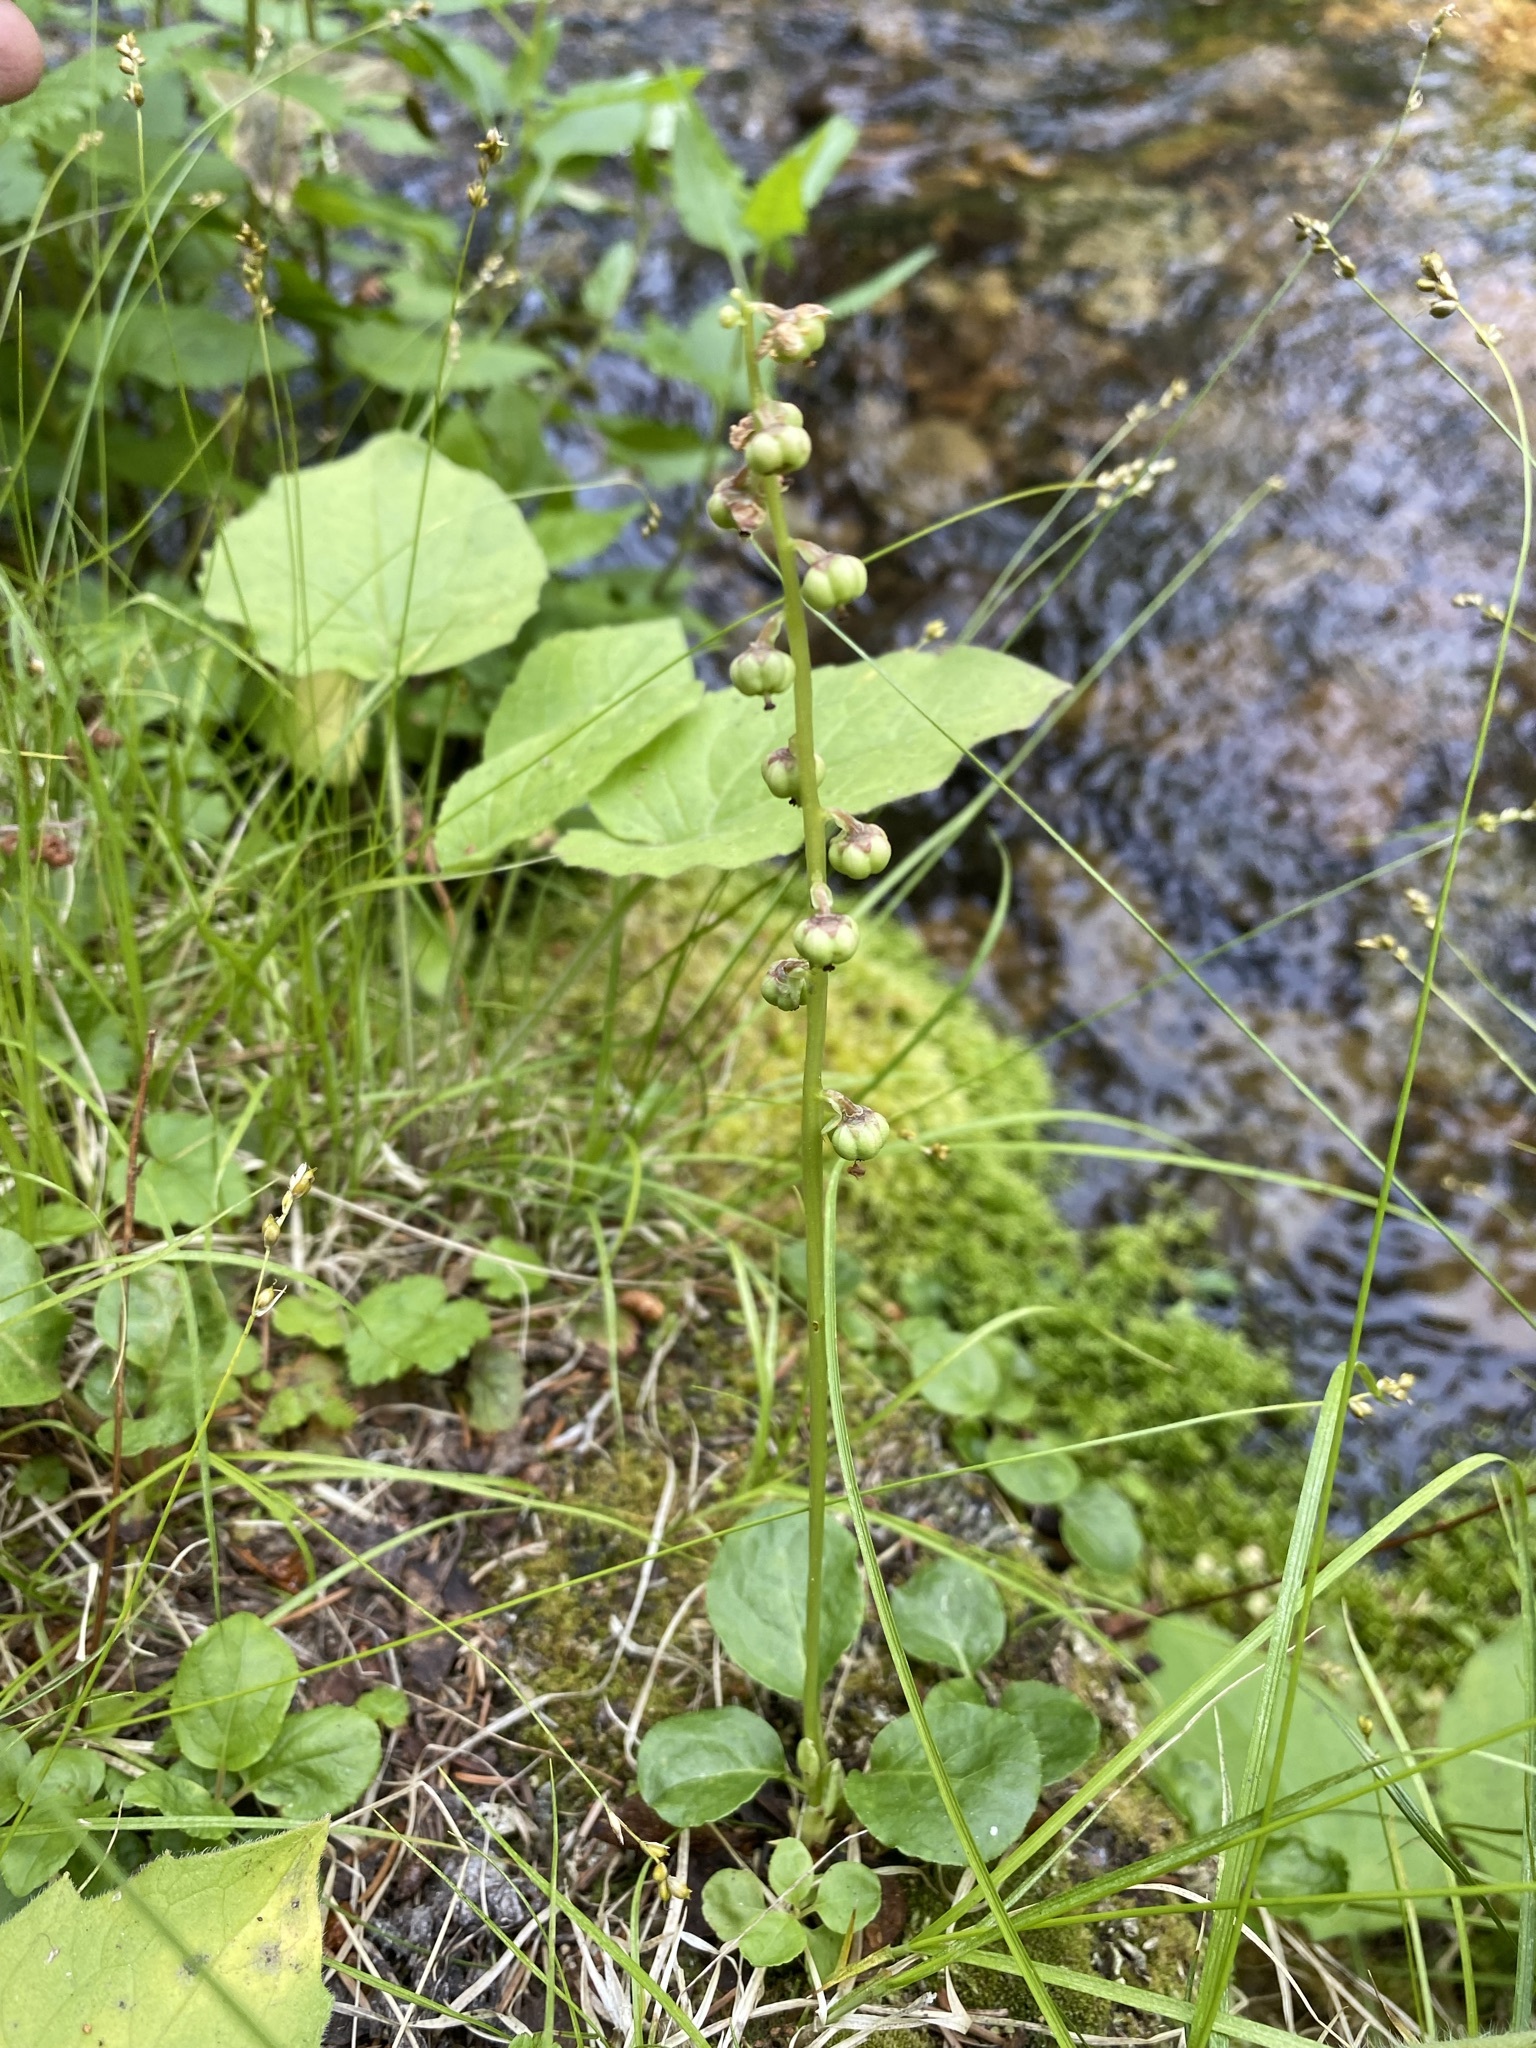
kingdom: Plantae
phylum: Tracheophyta
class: Magnoliopsida
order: Ericales
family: Ericaceae
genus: Pyrola
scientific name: Pyrola minor
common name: Common wintergreen
